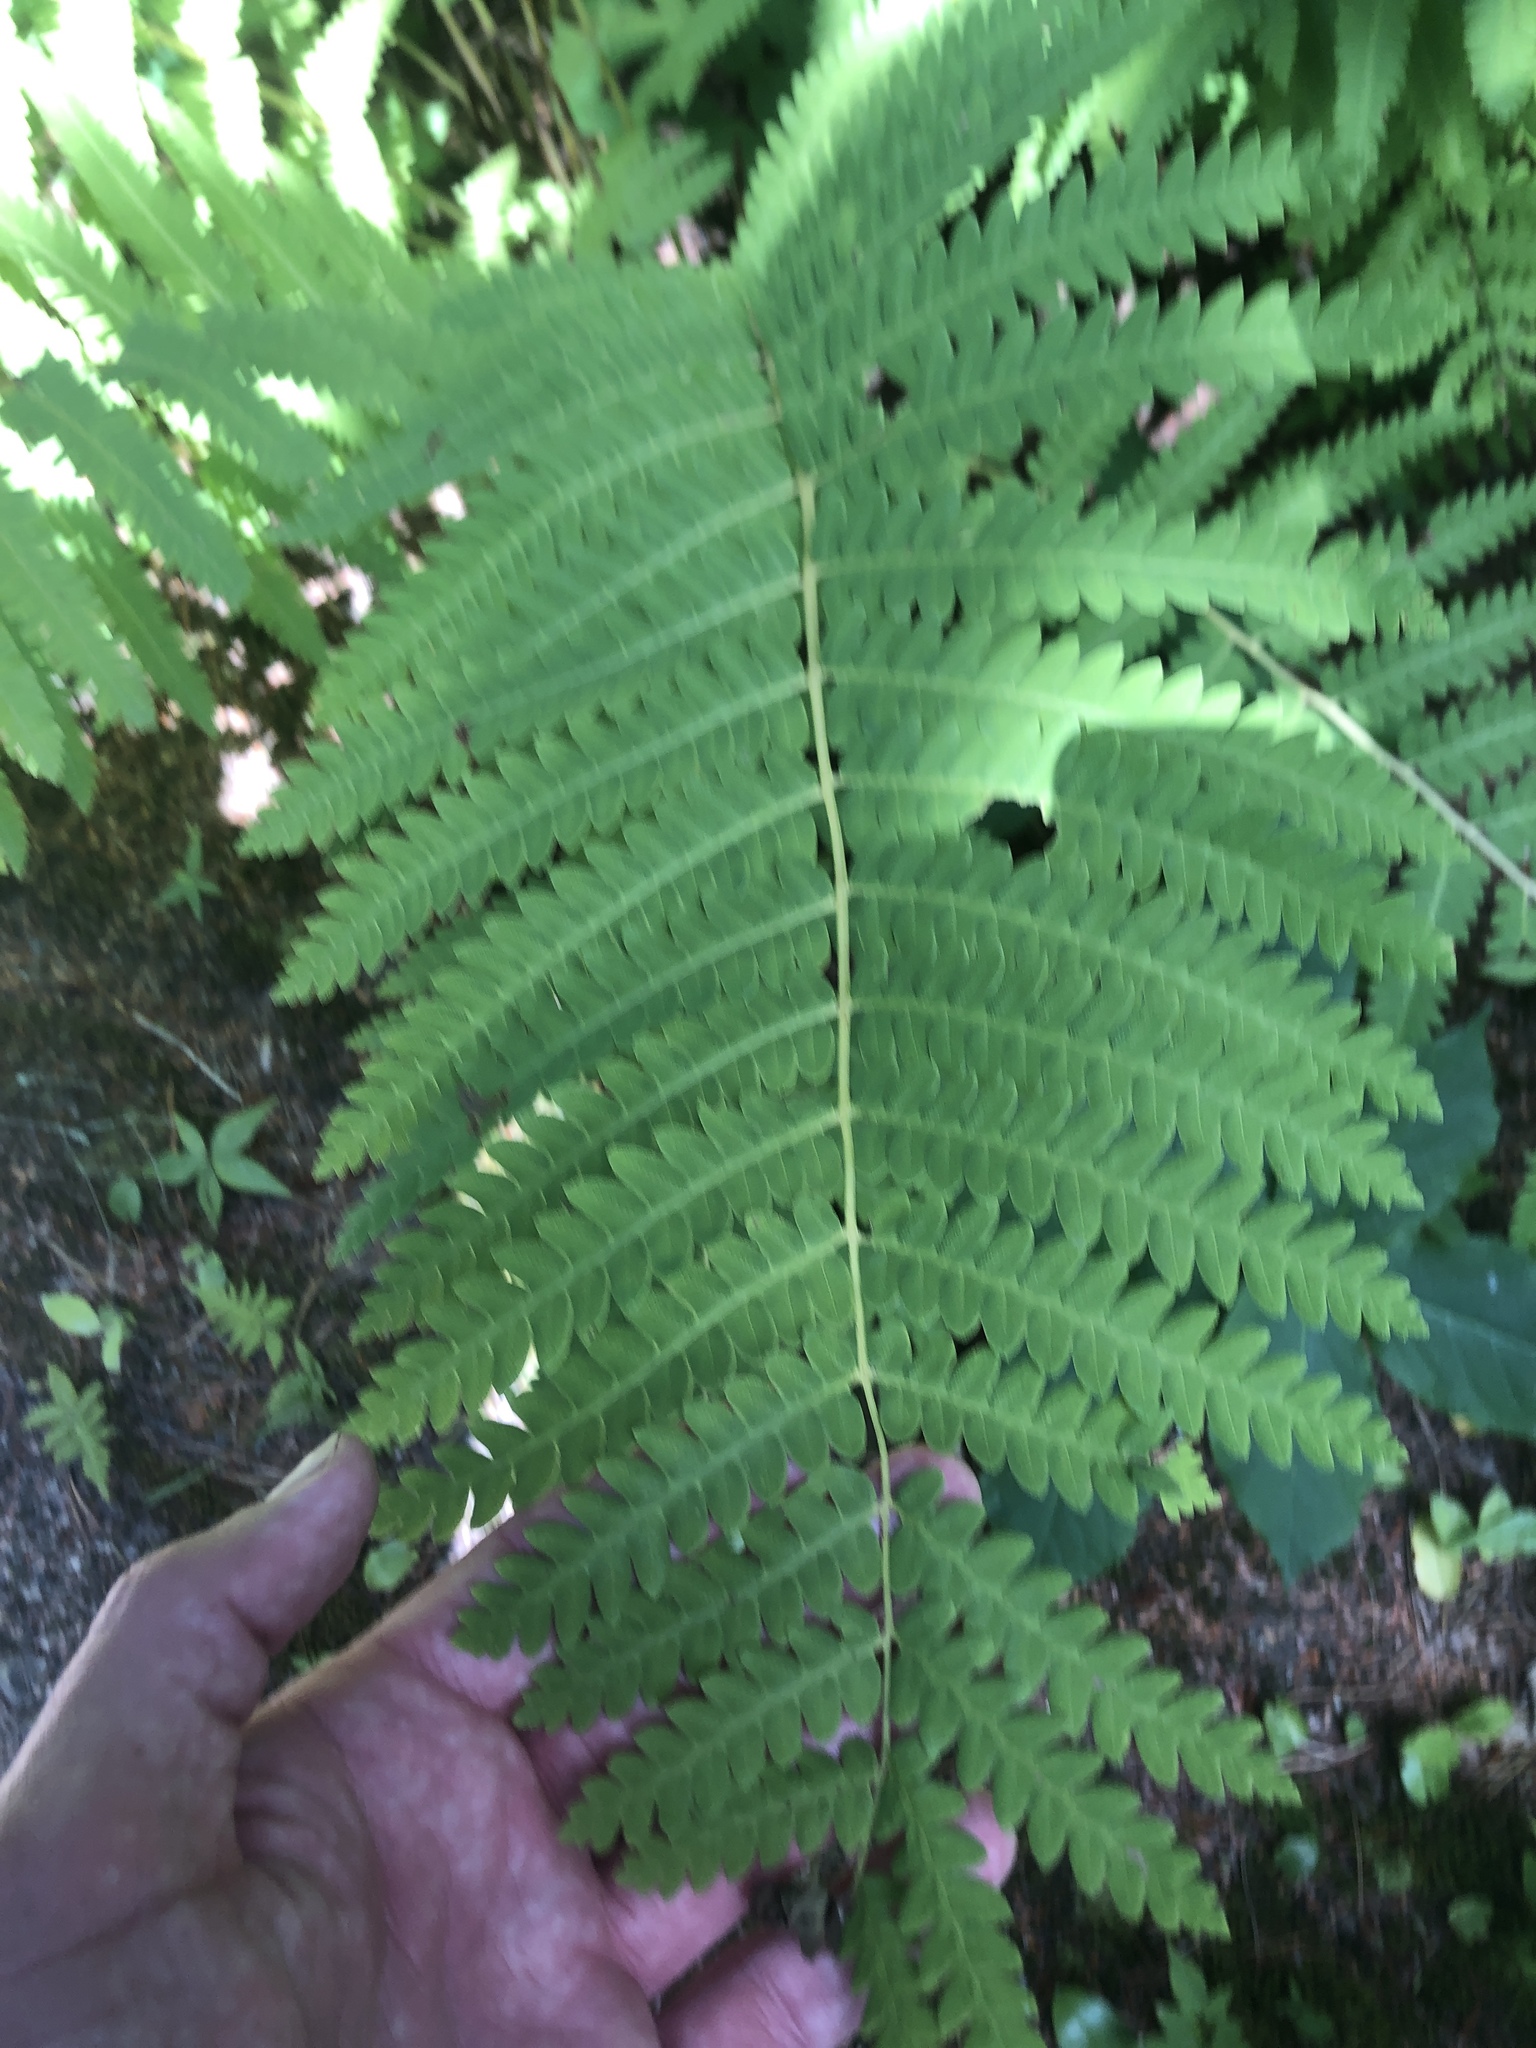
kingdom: Plantae
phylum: Tracheophyta
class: Polypodiopsida
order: Osmundales
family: Osmundaceae
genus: Claytosmunda
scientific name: Claytosmunda claytoniana
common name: Clayton's fern
